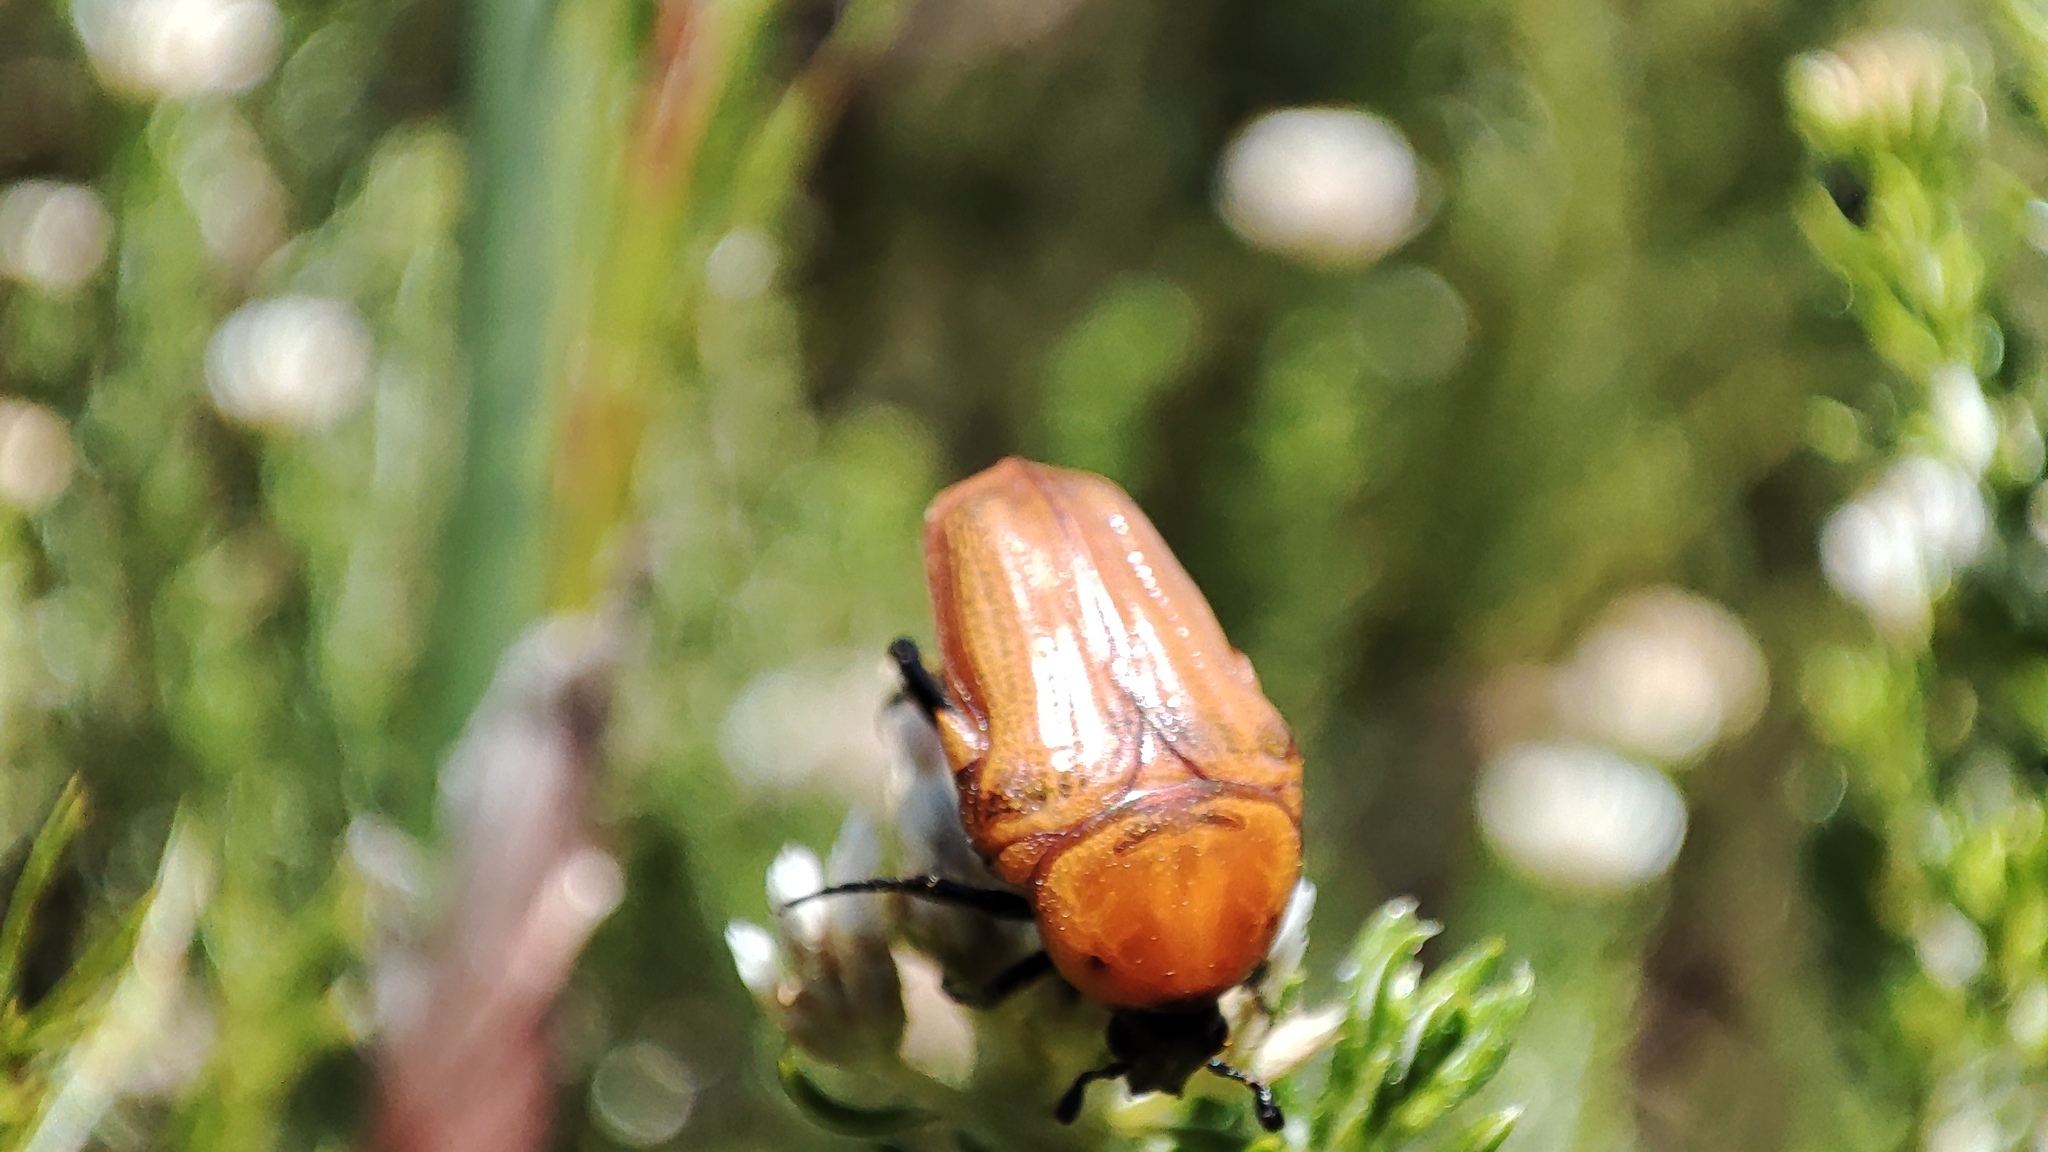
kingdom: Animalia
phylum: Arthropoda
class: Insecta
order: Coleoptera
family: Scarabaeidae
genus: Leucocelis
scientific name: Leucocelis rubra
